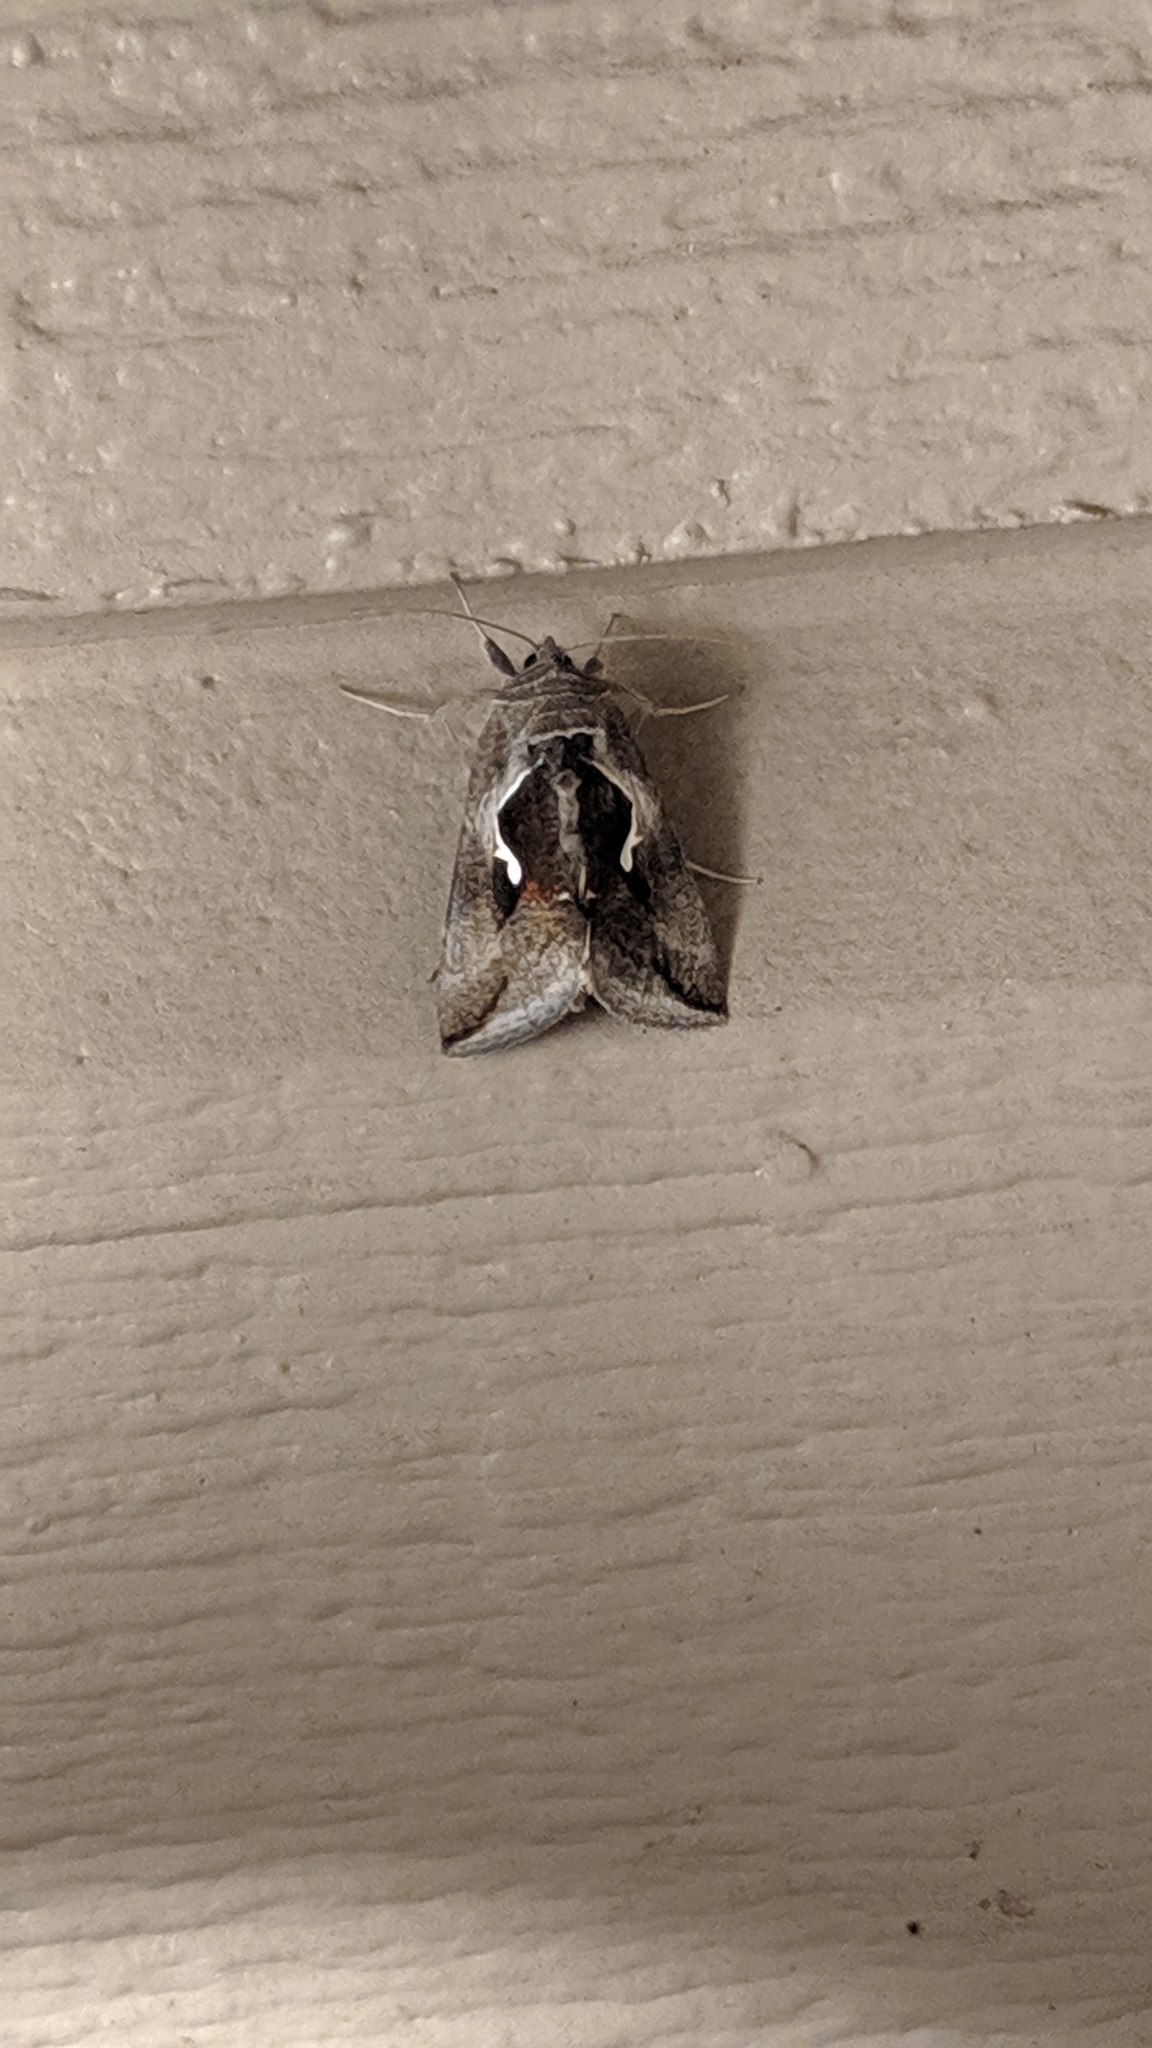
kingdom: Animalia
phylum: Arthropoda
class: Insecta
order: Lepidoptera
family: Noctuidae
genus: Anagrapha
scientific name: Anagrapha falcifera
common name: Celery looper
